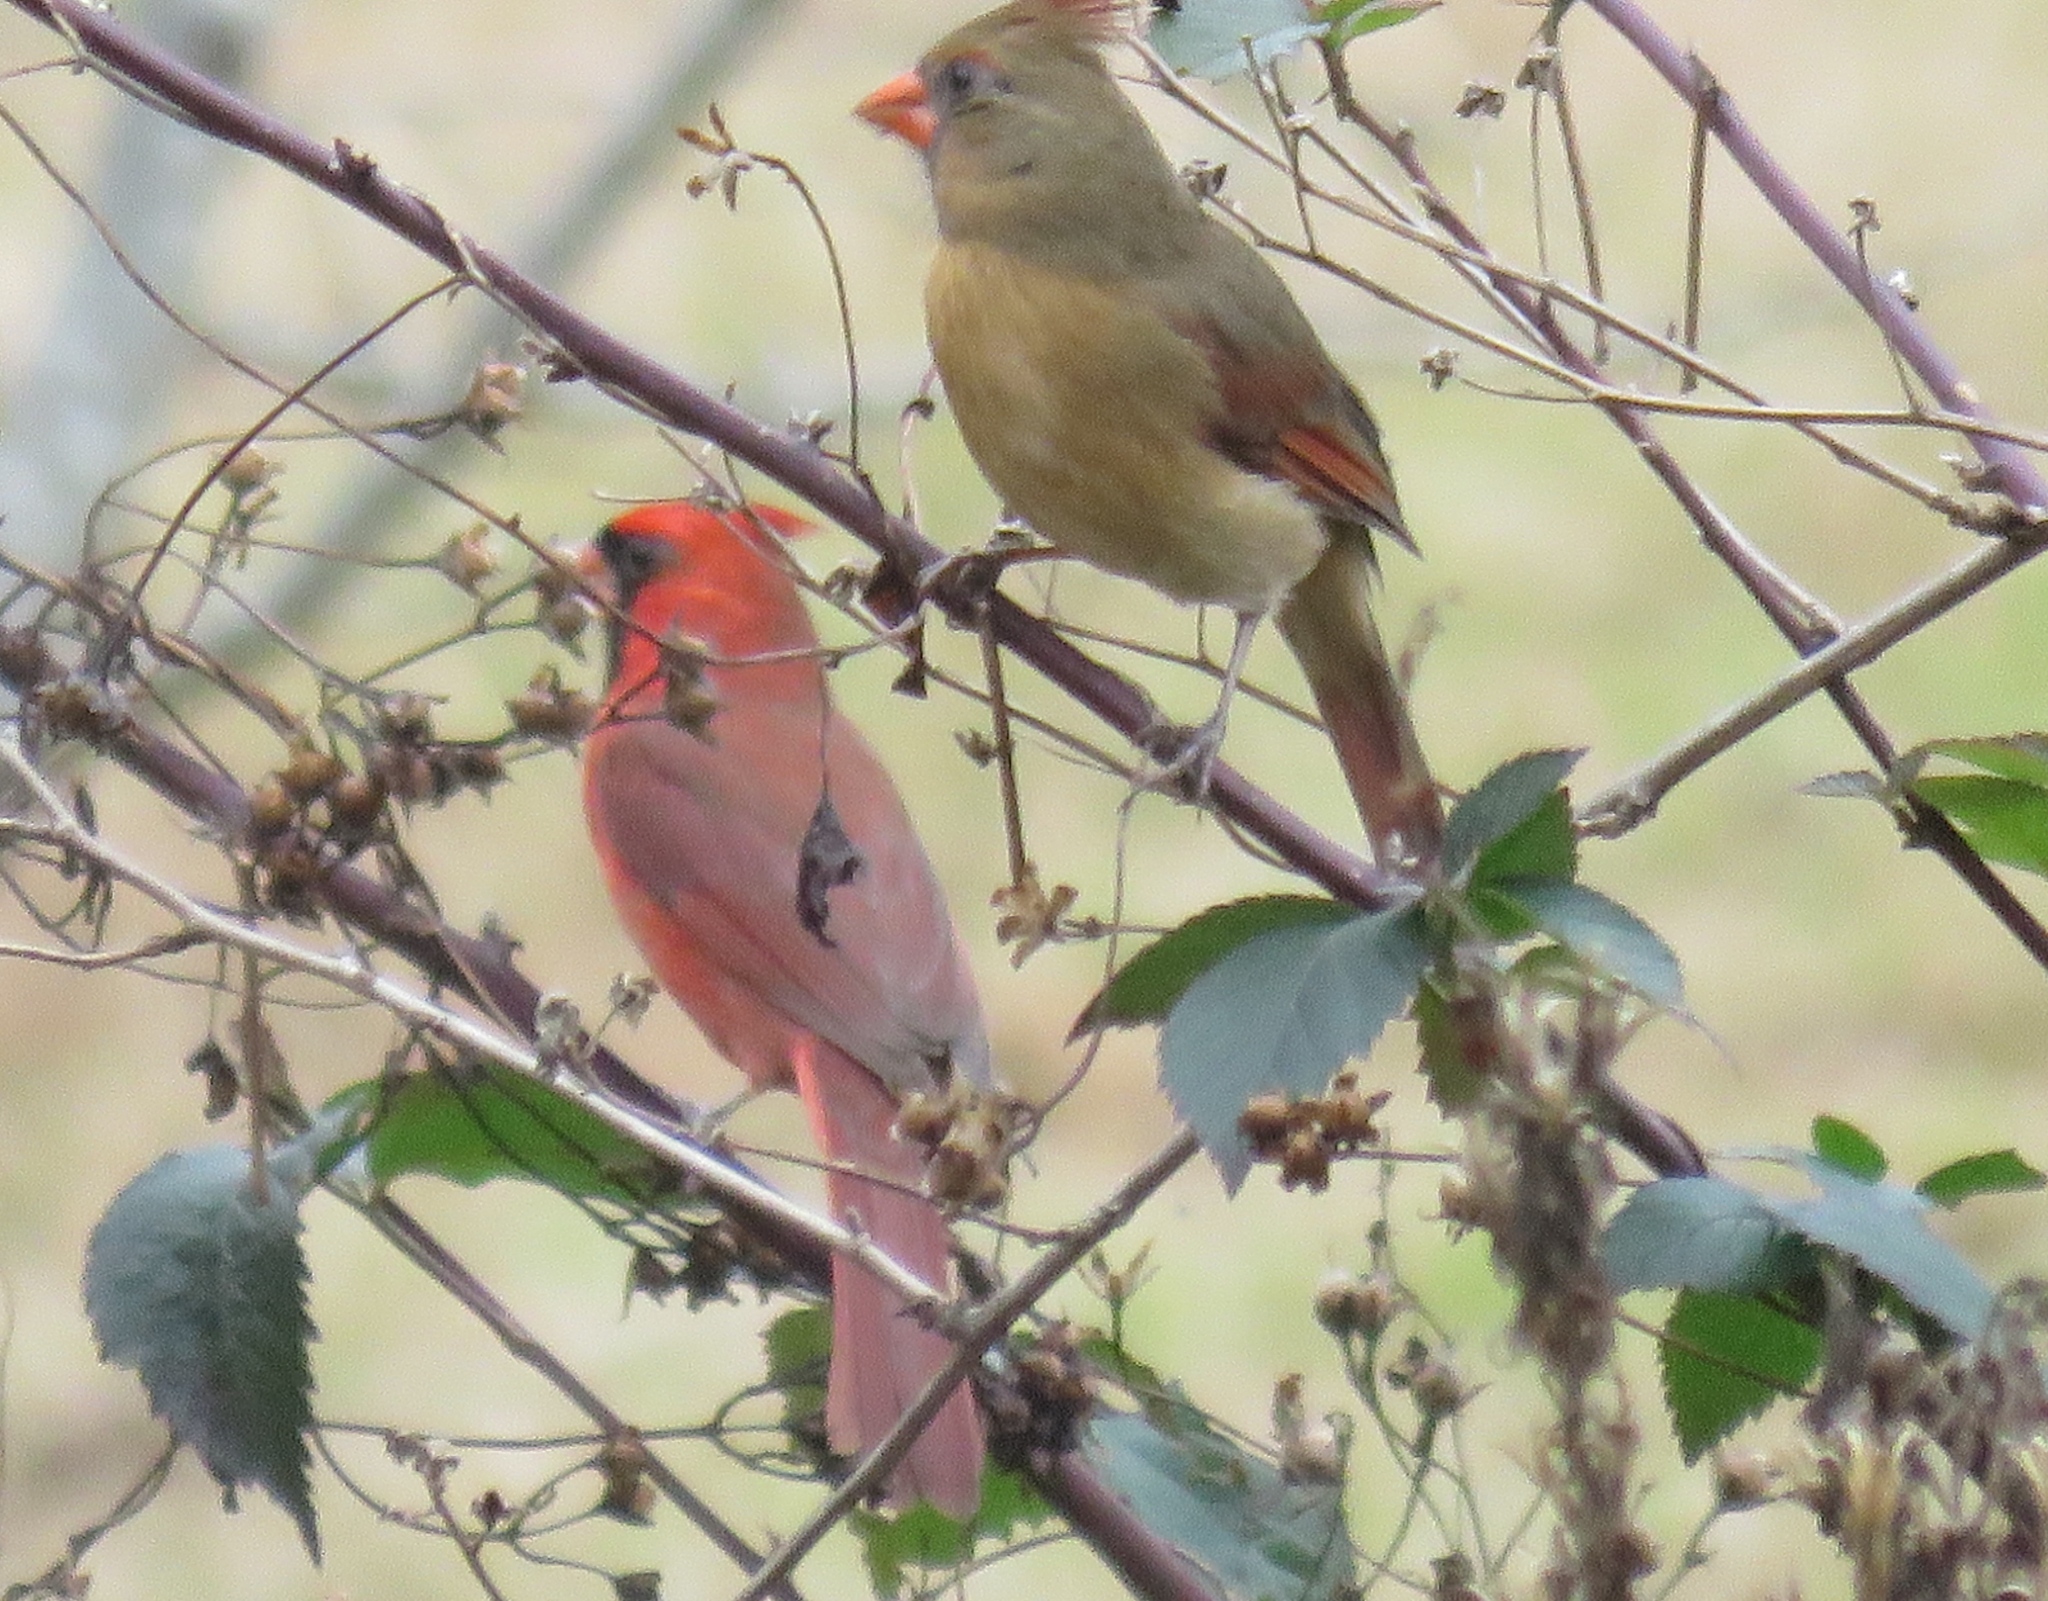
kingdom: Animalia
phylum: Chordata
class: Aves
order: Passeriformes
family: Cardinalidae
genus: Cardinalis
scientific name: Cardinalis cardinalis
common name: Northern cardinal
